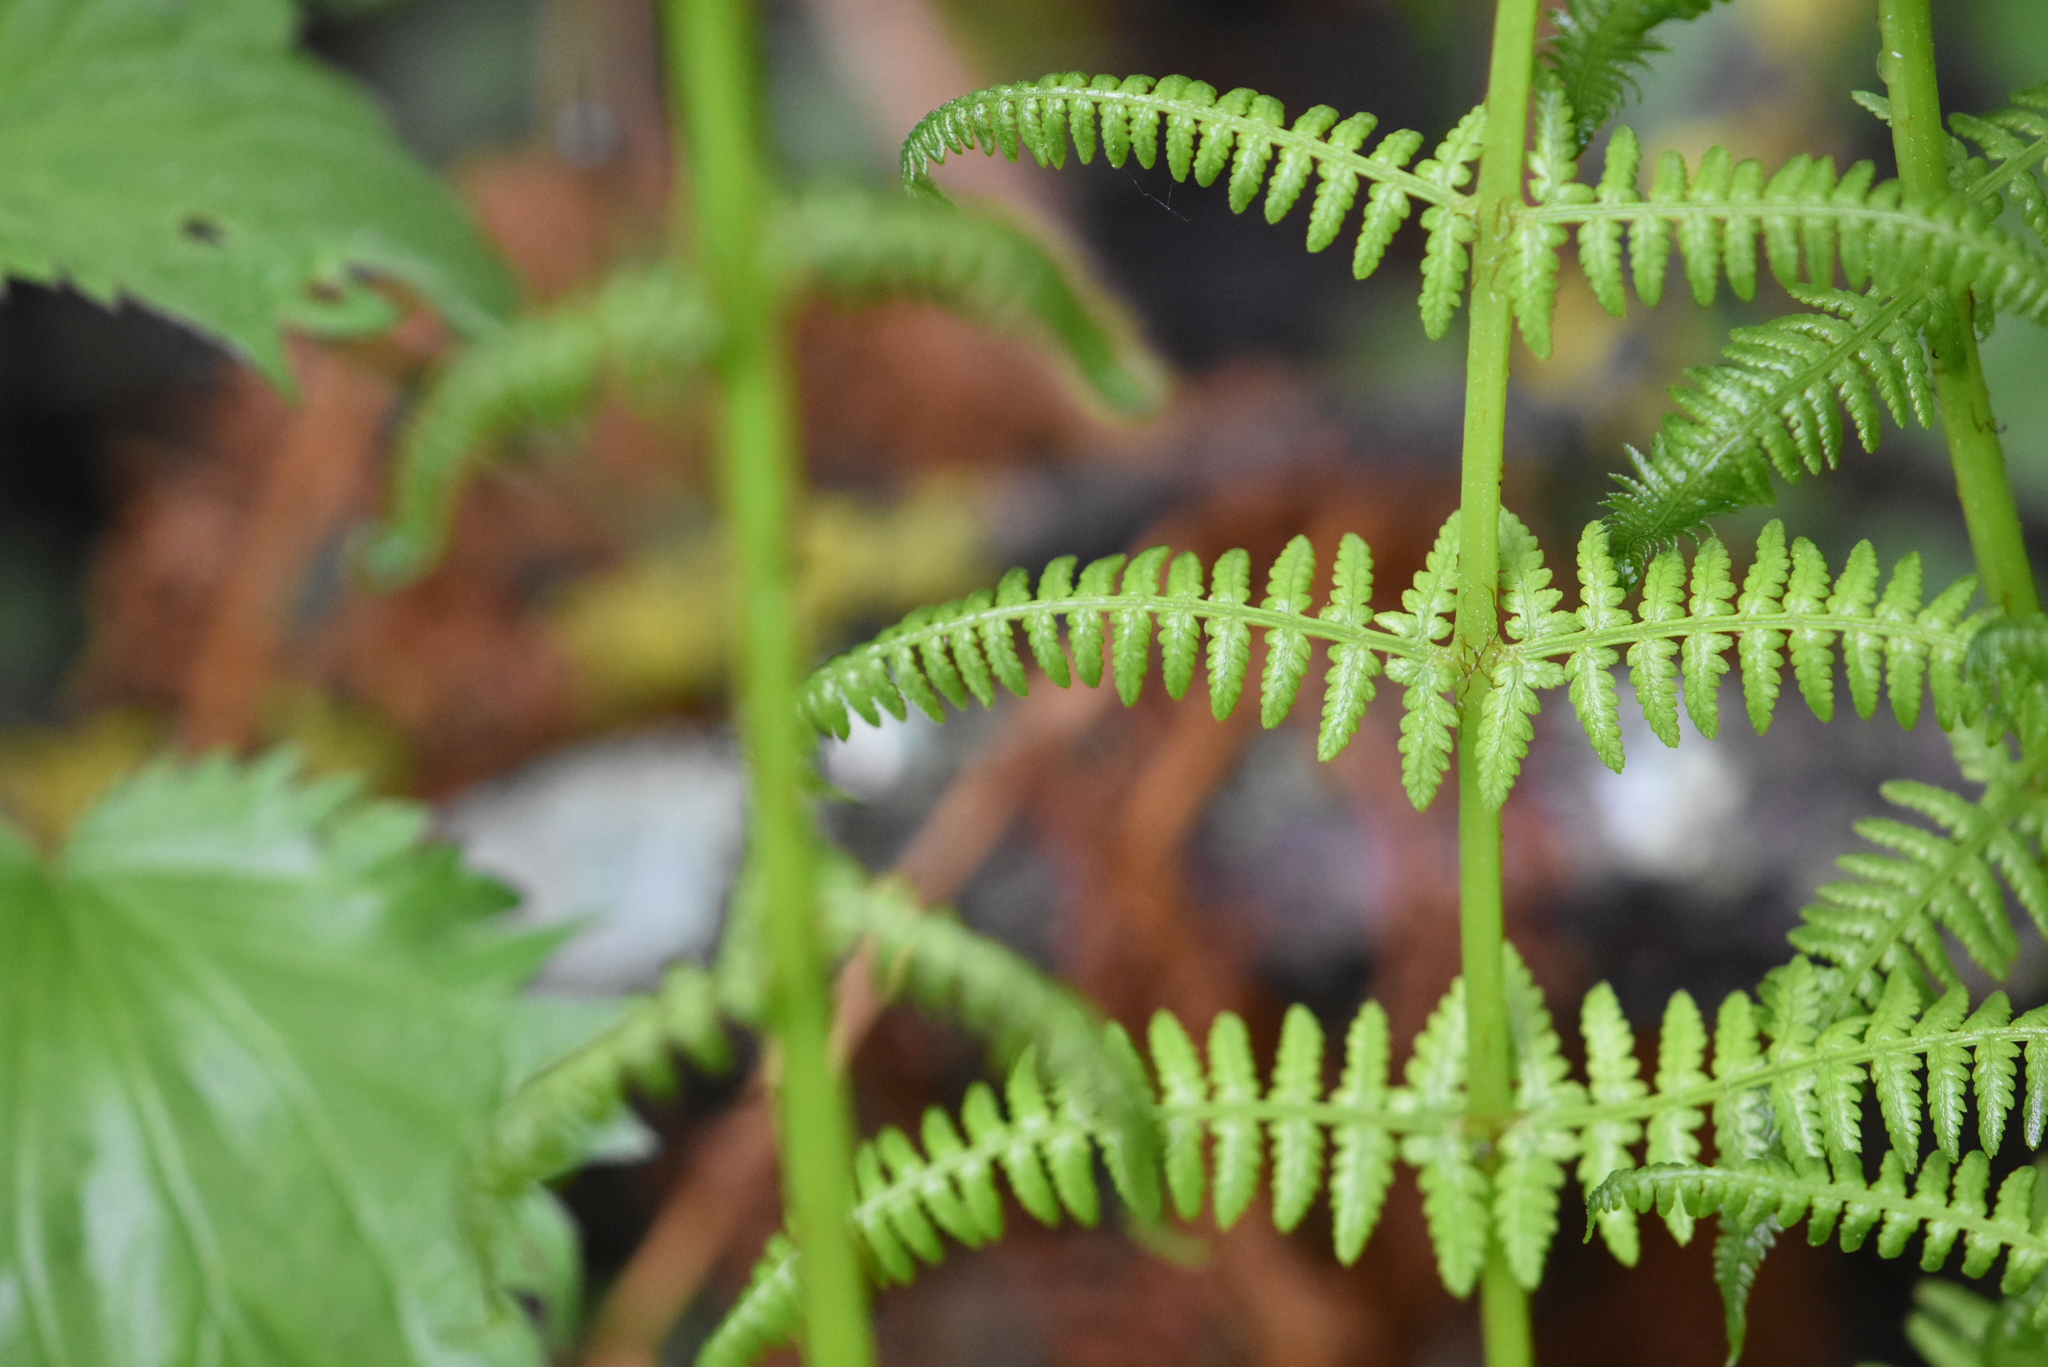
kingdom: Plantae
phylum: Tracheophyta
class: Polypodiopsida
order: Polypodiales
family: Athyriaceae
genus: Athyrium
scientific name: Athyrium filix-femina
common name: Lady fern
